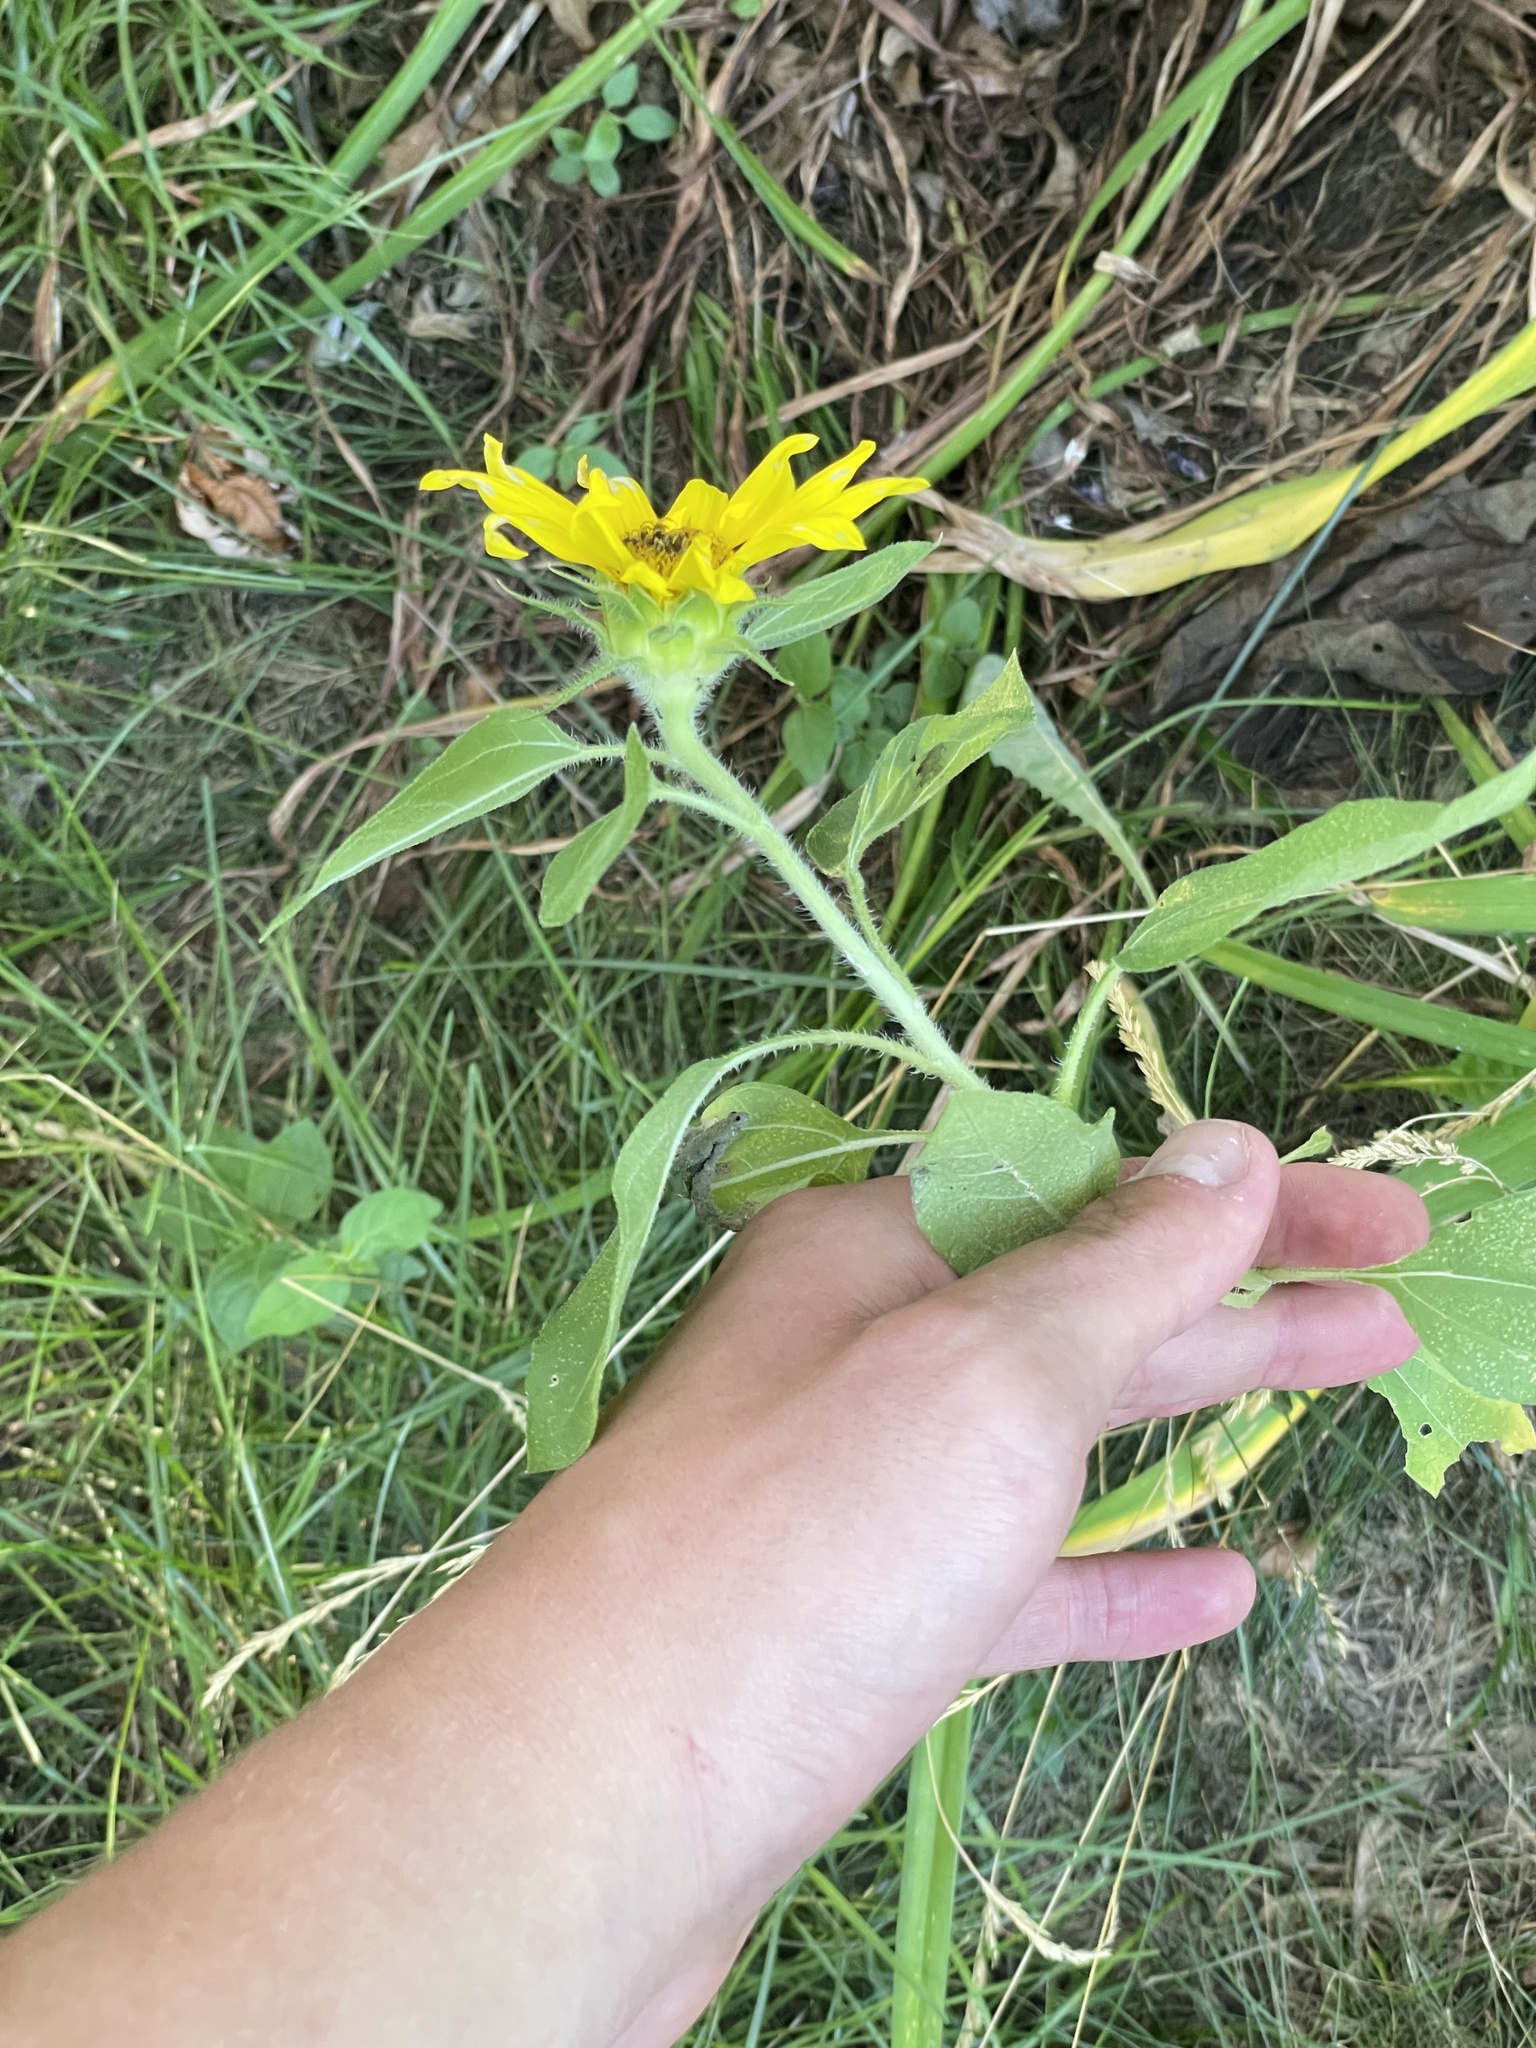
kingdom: Plantae
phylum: Tracheophyta
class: Magnoliopsida
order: Asterales
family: Asteraceae
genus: Helianthus
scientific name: Helianthus hirsutus
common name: Hairy sunflower
